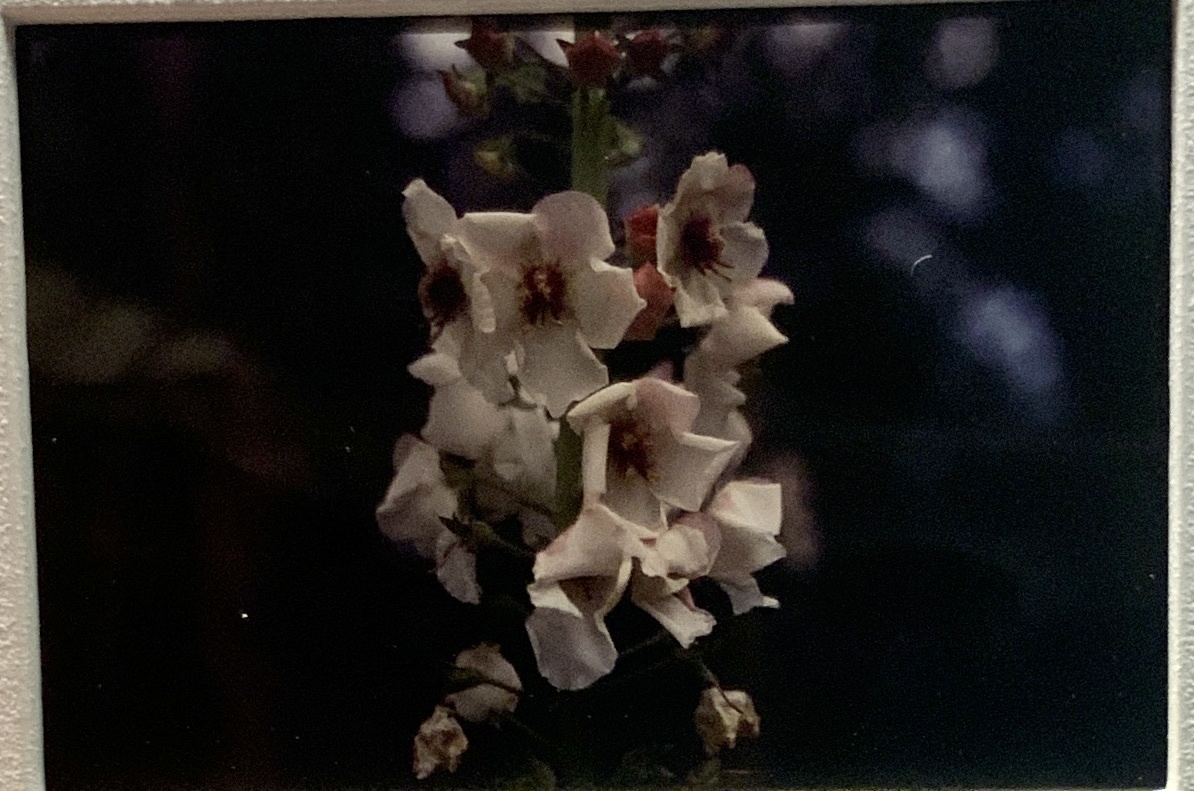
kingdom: Plantae
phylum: Tracheophyta
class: Magnoliopsida
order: Lamiales
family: Scrophulariaceae
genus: Verbascum
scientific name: Verbascum blattaria
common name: Moth mullein
